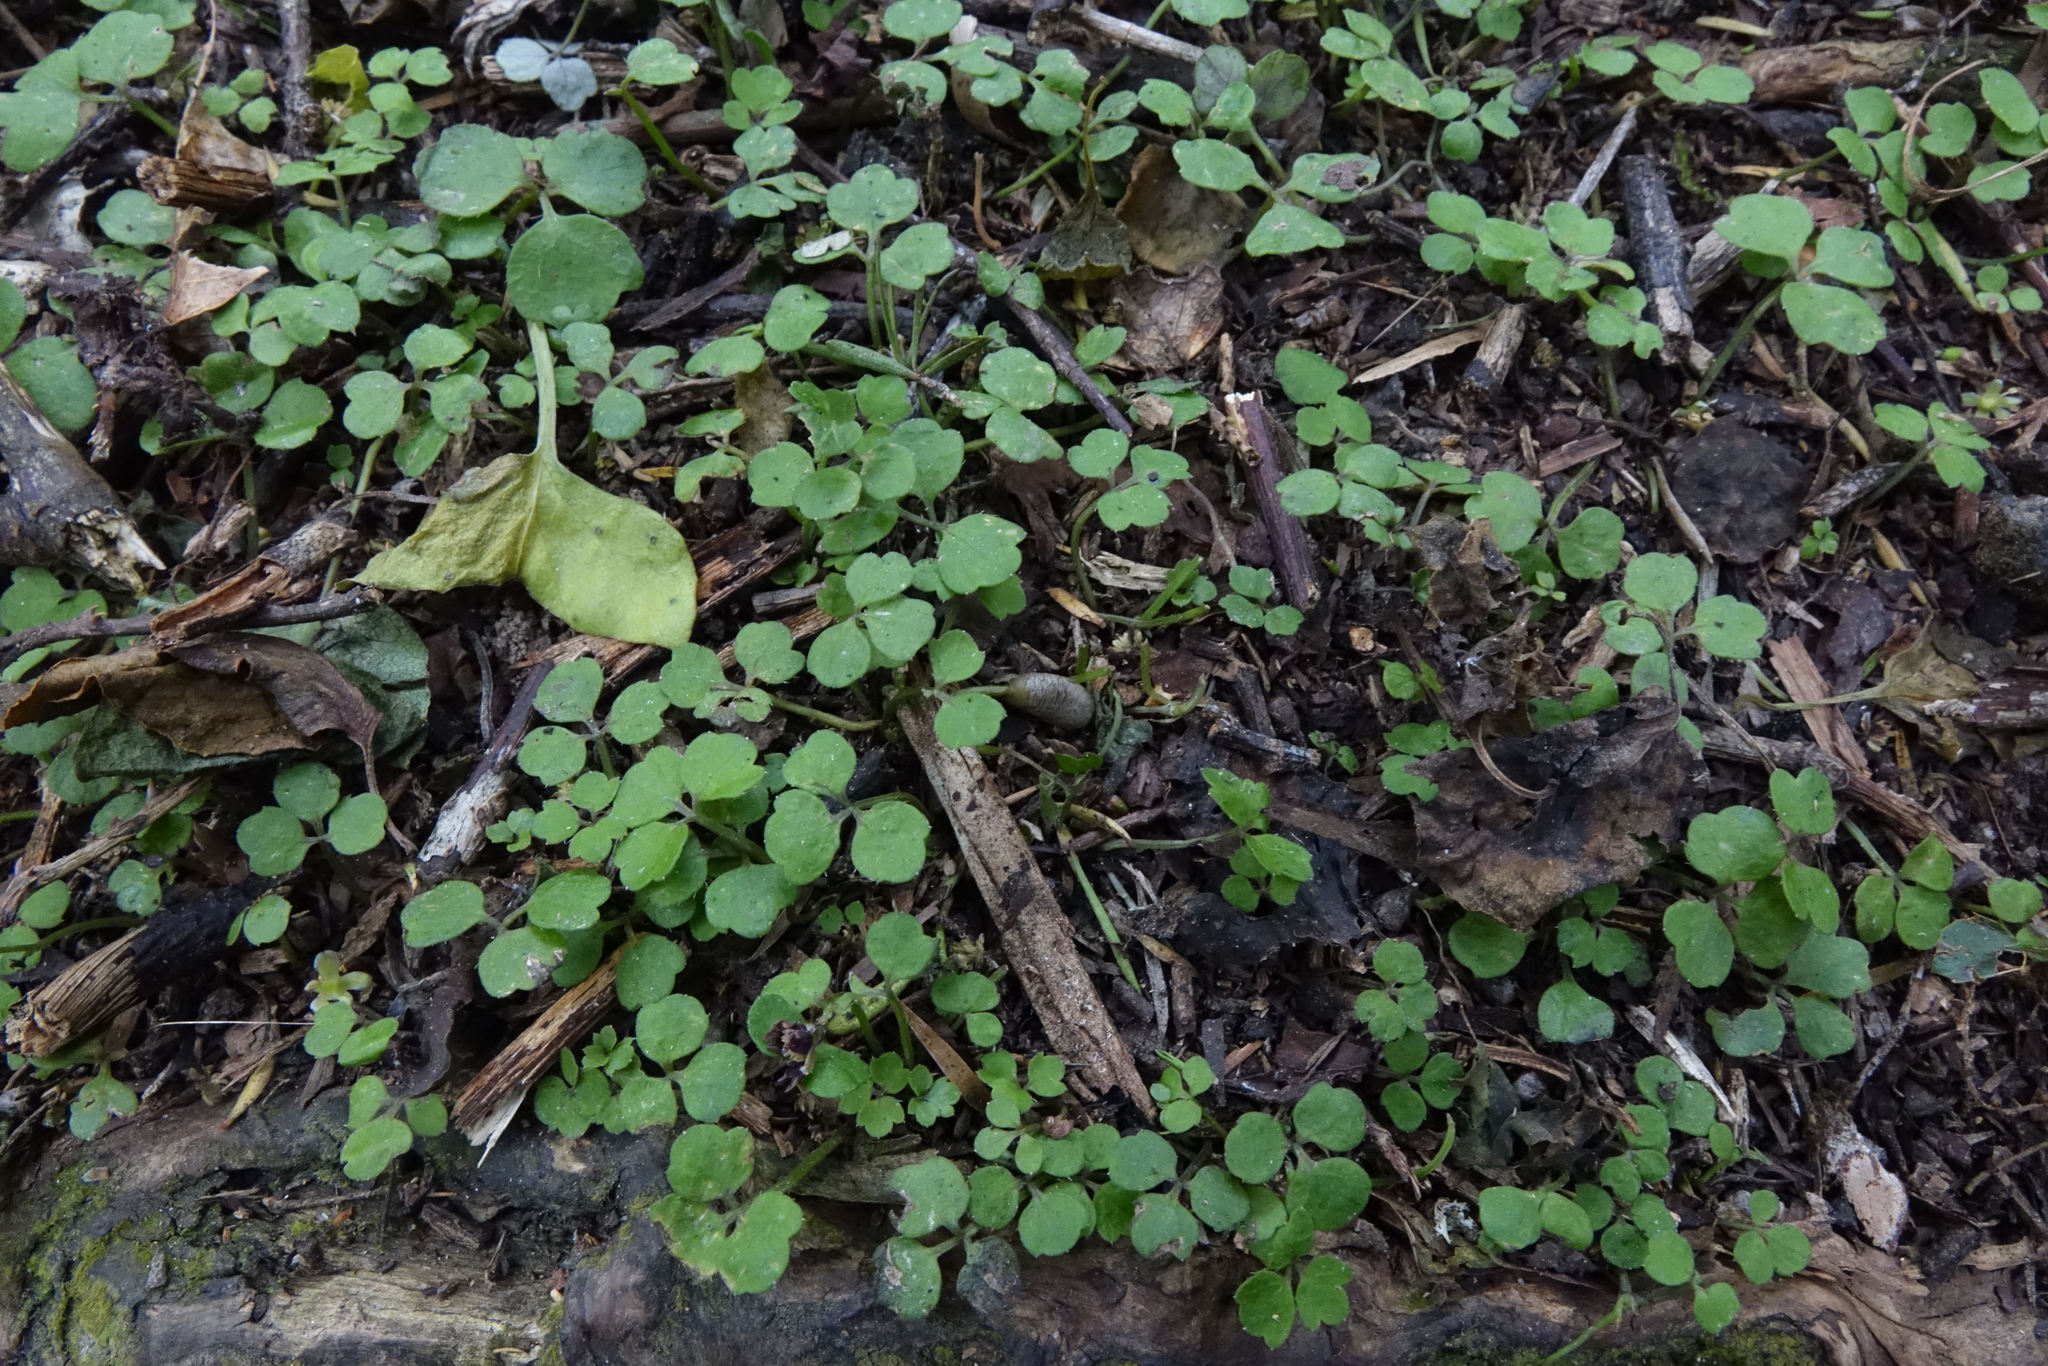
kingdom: Plantae
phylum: Tracheophyta
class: Magnoliopsida
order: Apiales
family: Apiaceae
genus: Azorella
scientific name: Azorella hookeri
